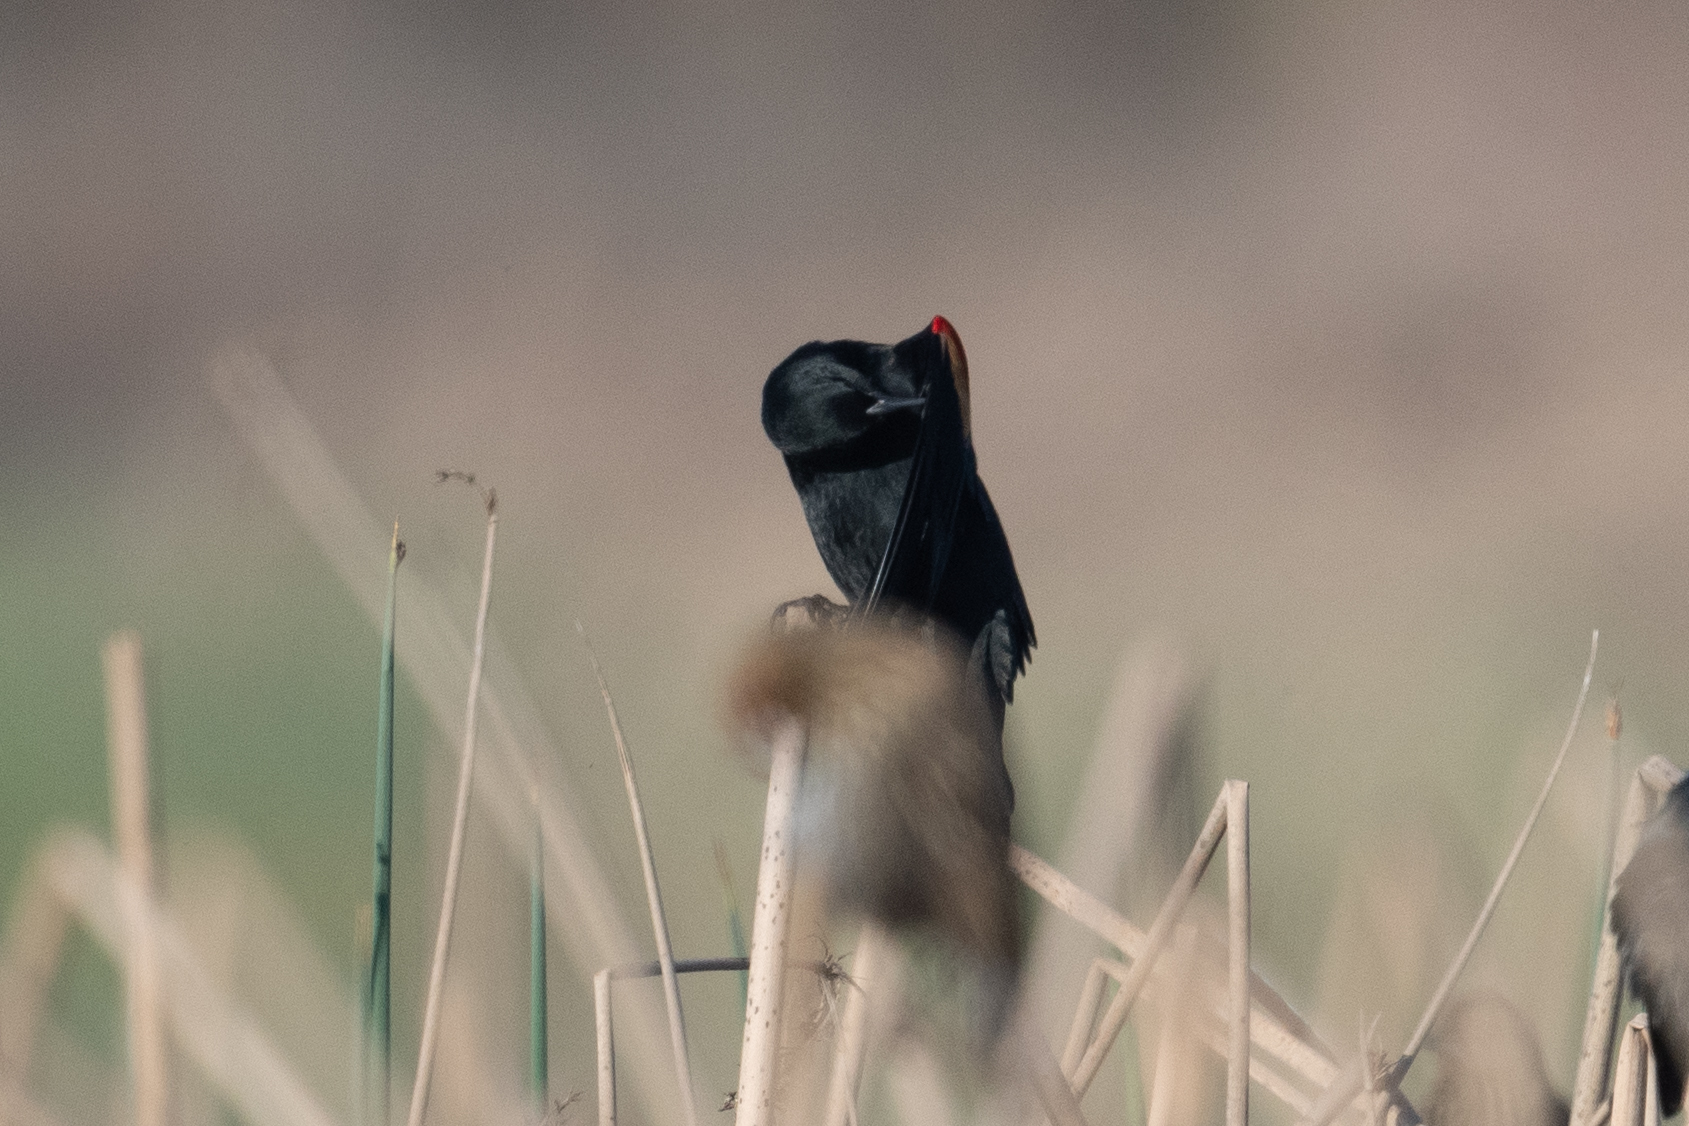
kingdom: Animalia
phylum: Chordata
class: Aves
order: Passeriformes
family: Icteridae
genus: Agelaius
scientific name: Agelaius phoeniceus
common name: Red-winged blackbird
